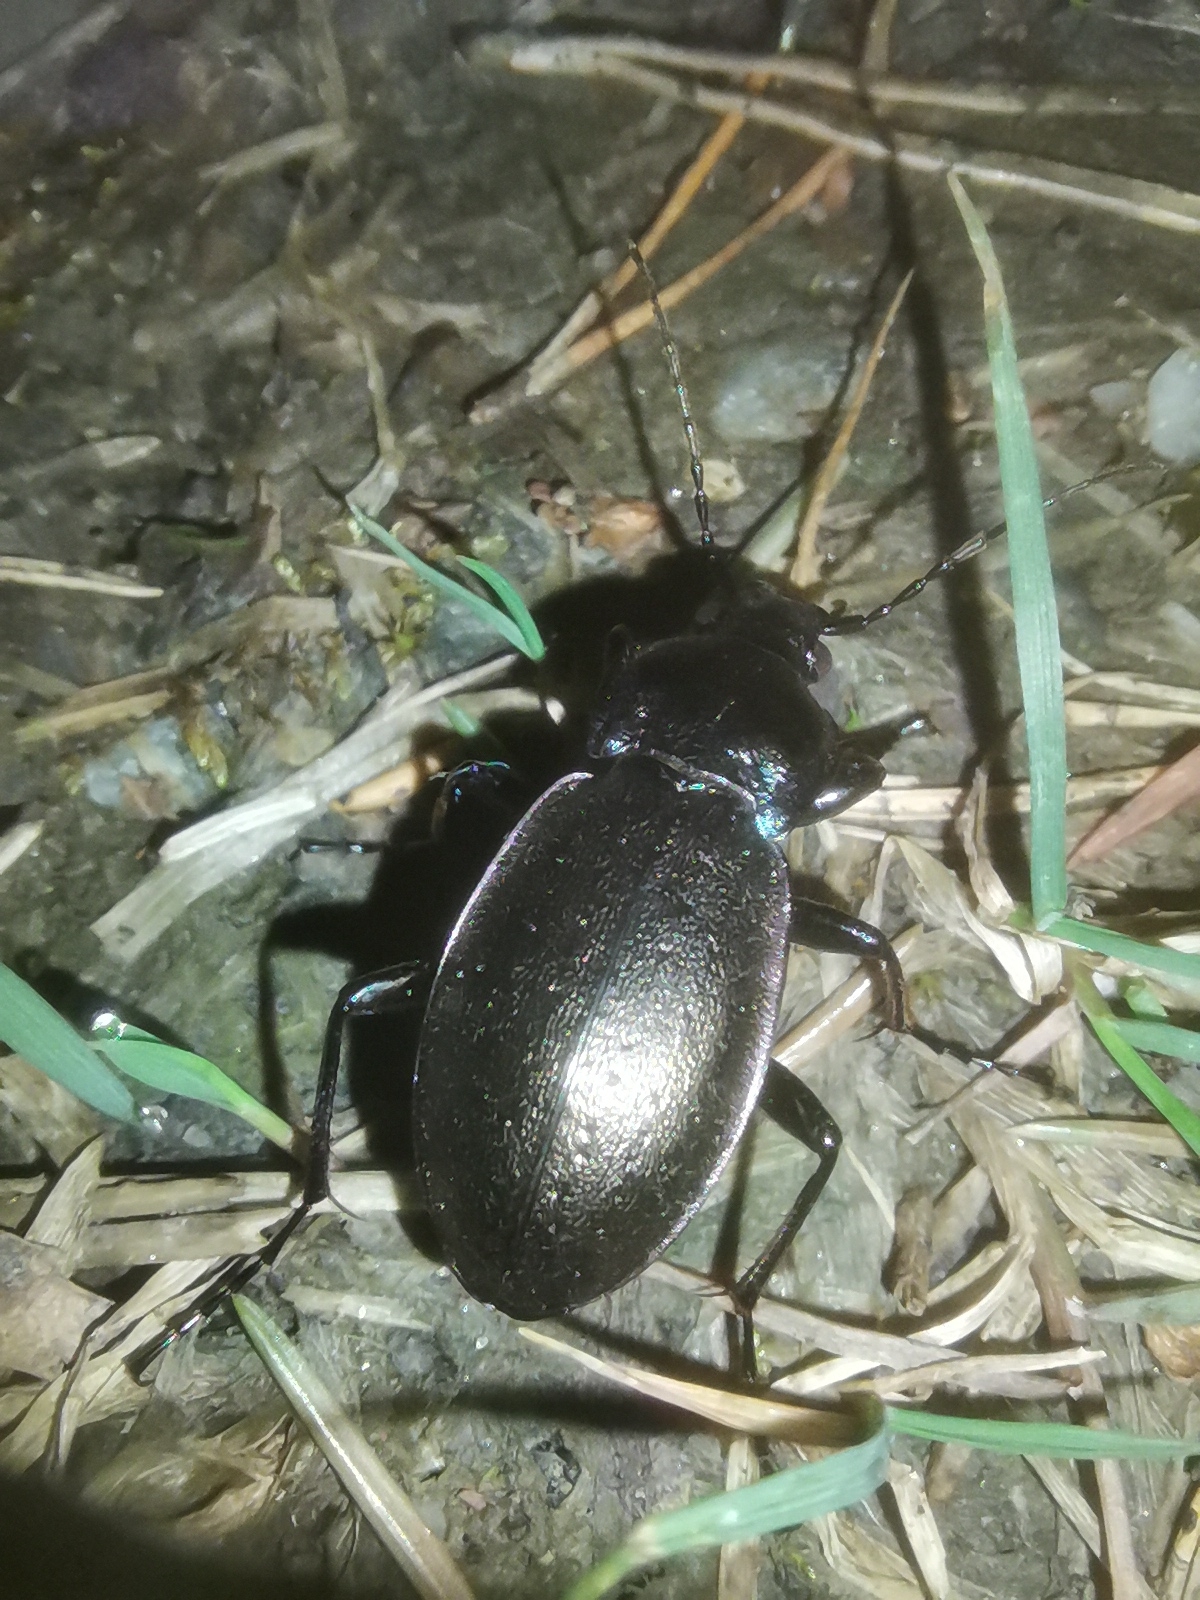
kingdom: Animalia
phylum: Arthropoda
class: Insecta
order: Coleoptera
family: Carabidae
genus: Carabus
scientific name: Carabus nemoralis
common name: European ground beetle
